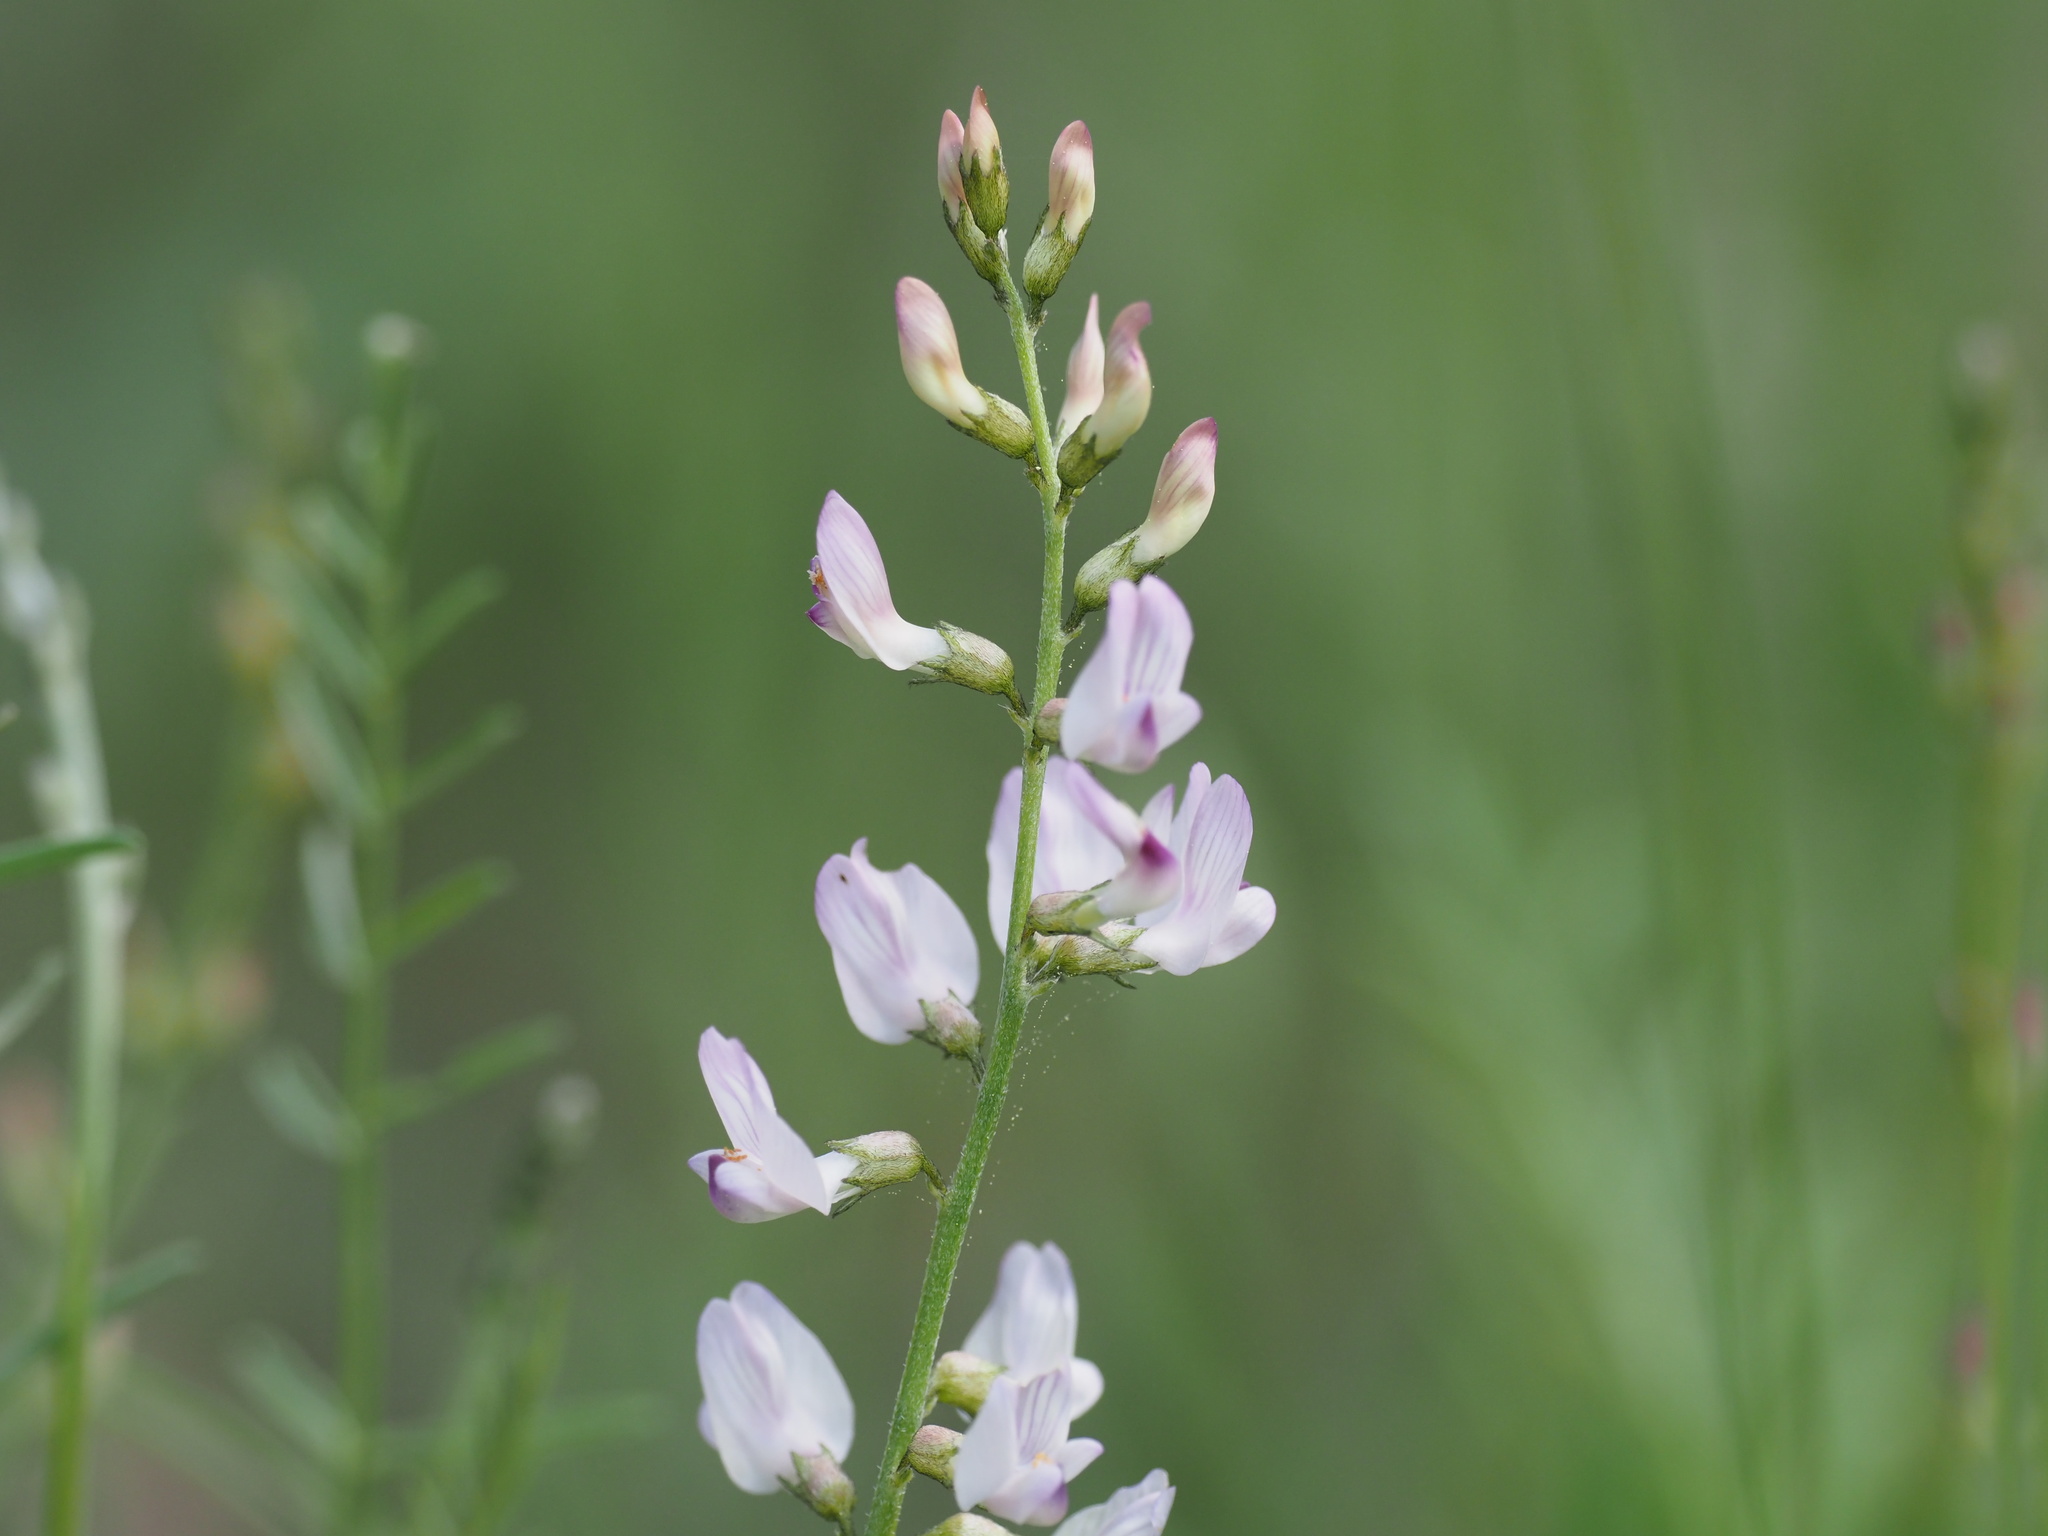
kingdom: Plantae
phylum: Tracheophyta
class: Magnoliopsida
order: Fabales
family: Fabaceae
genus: Astragalus
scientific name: Astragalus miser
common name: Timber milkvetch
